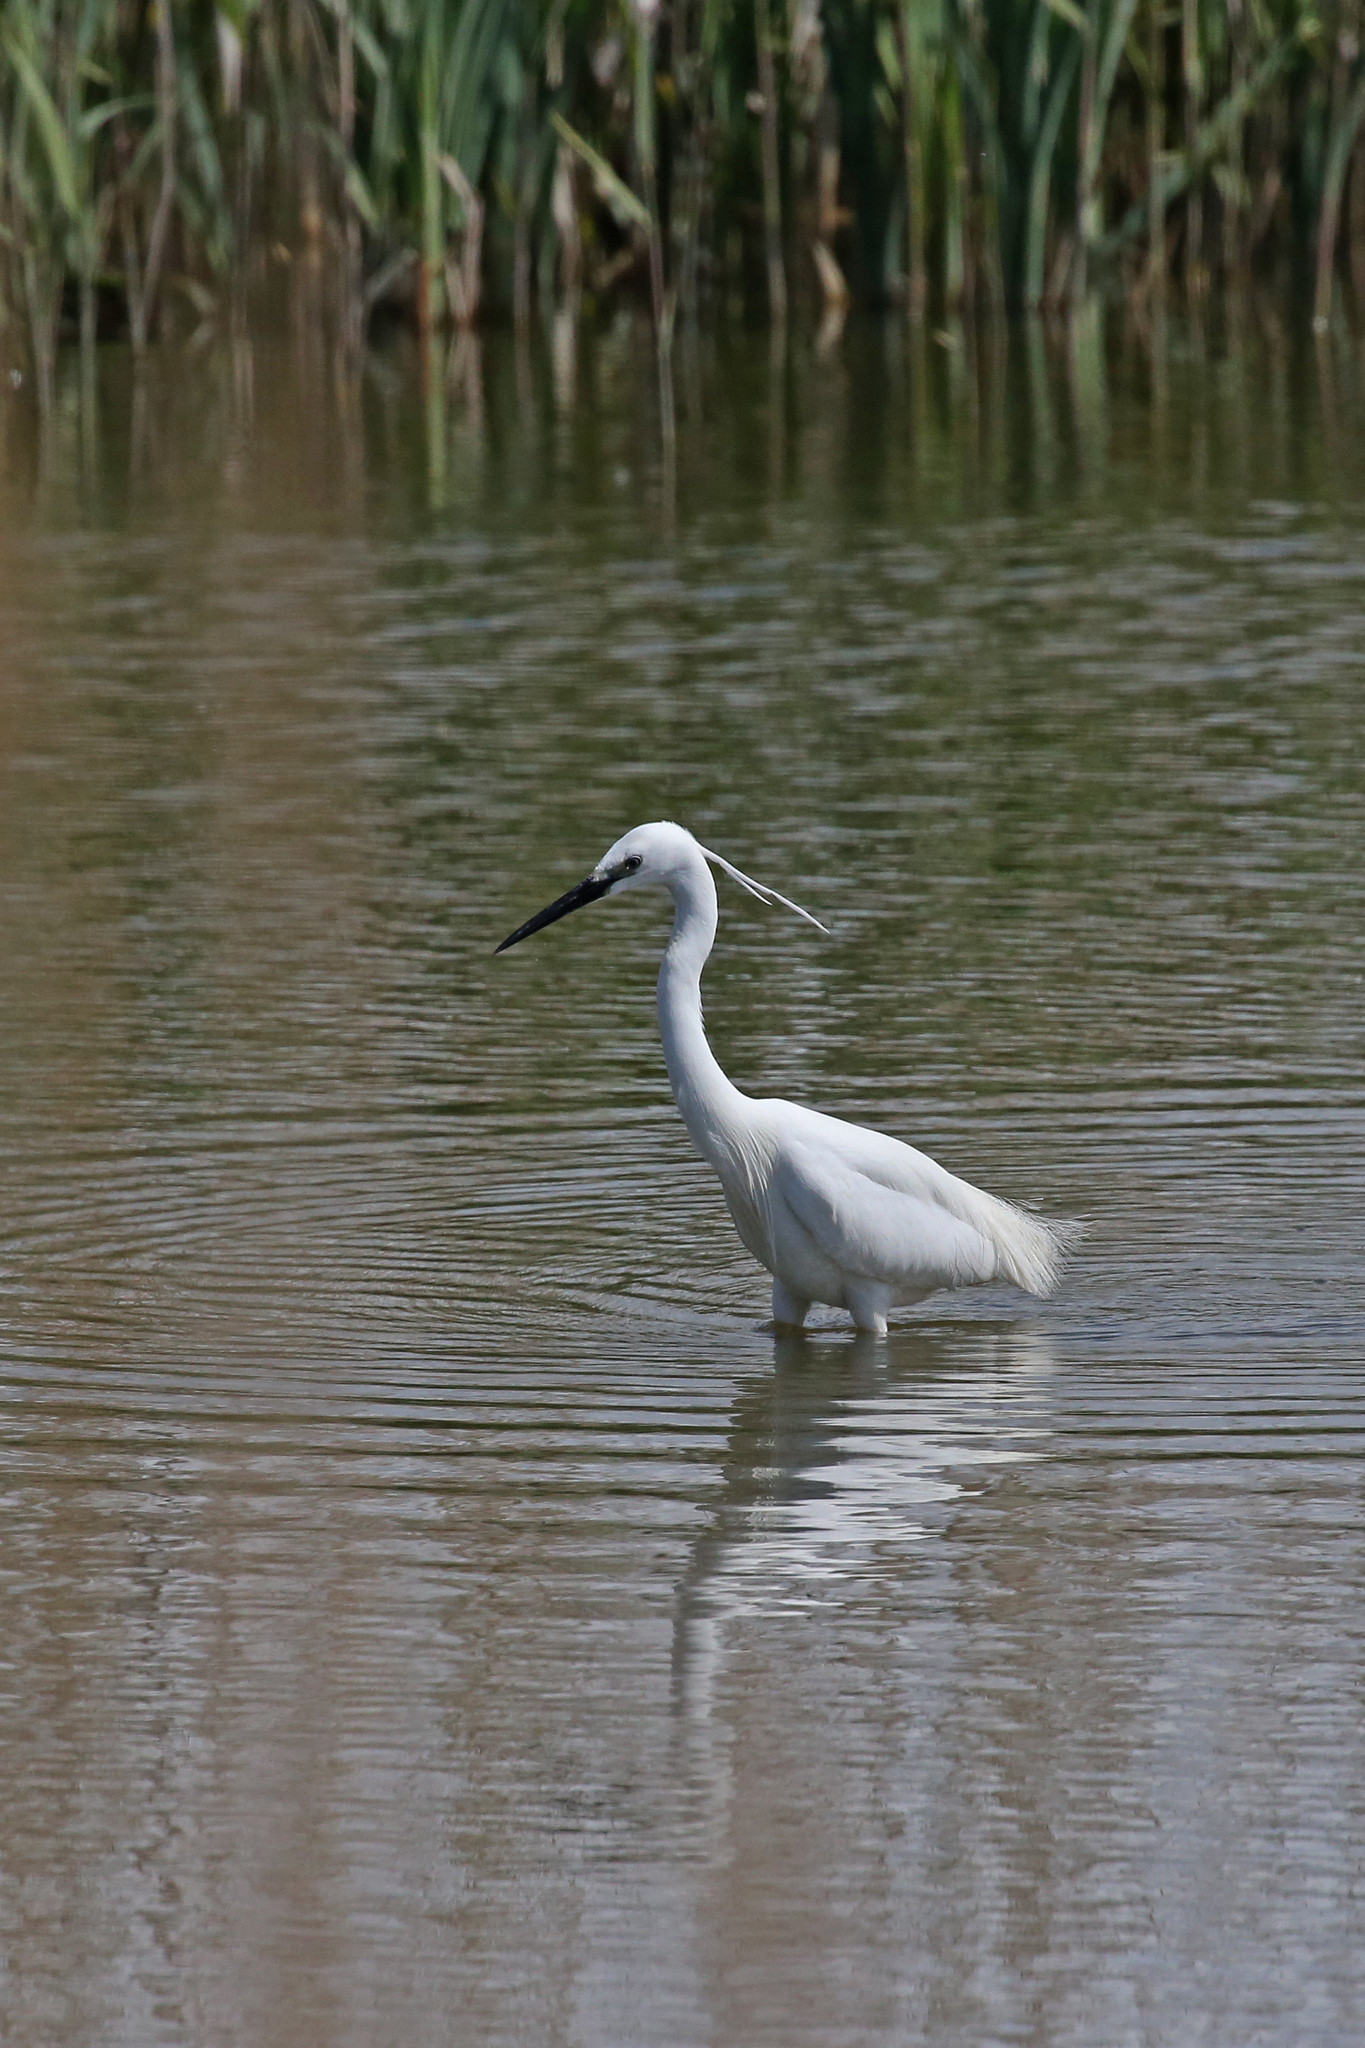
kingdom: Animalia
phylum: Chordata
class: Aves
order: Pelecaniformes
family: Ardeidae
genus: Egretta
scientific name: Egretta garzetta
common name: Little egret
